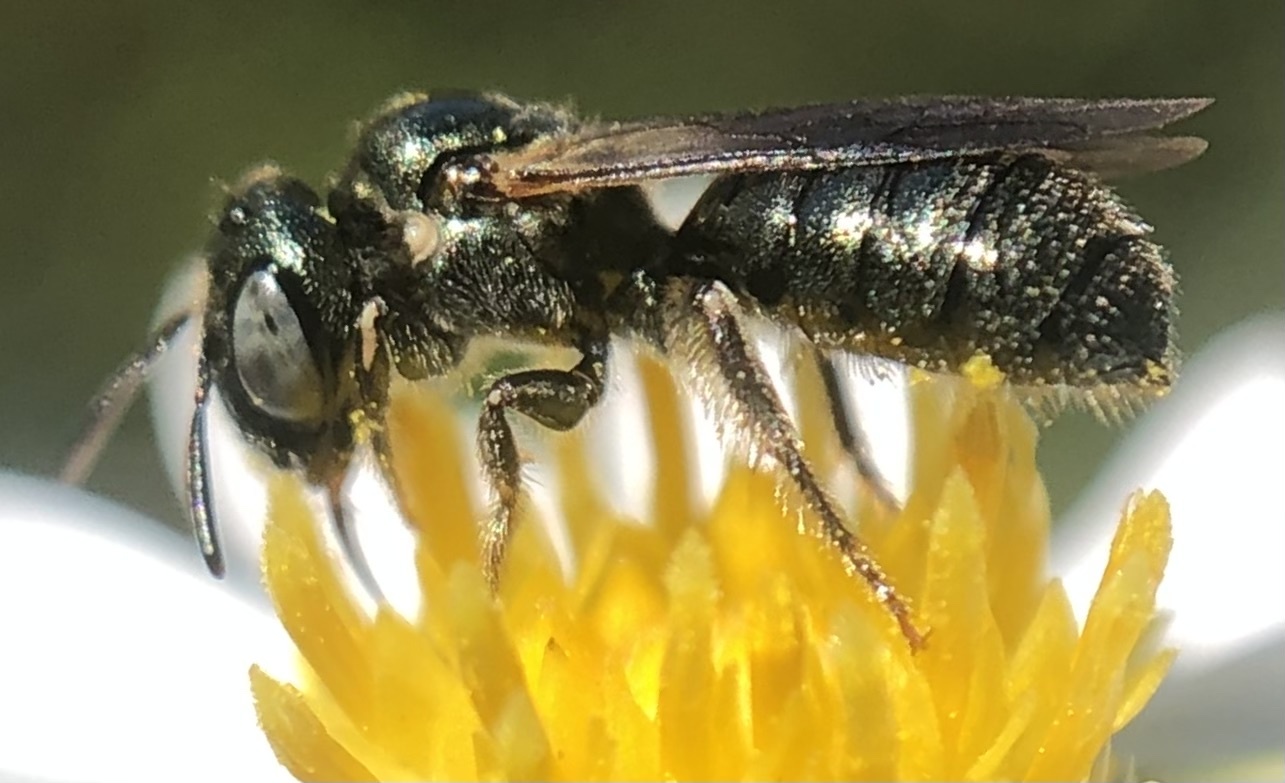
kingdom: Animalia
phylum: Arthropoda
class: Insecta
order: Hymenoptera
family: Apidae
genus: Ceratina
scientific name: Ceratina strenua
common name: Nimble carpenter bee
